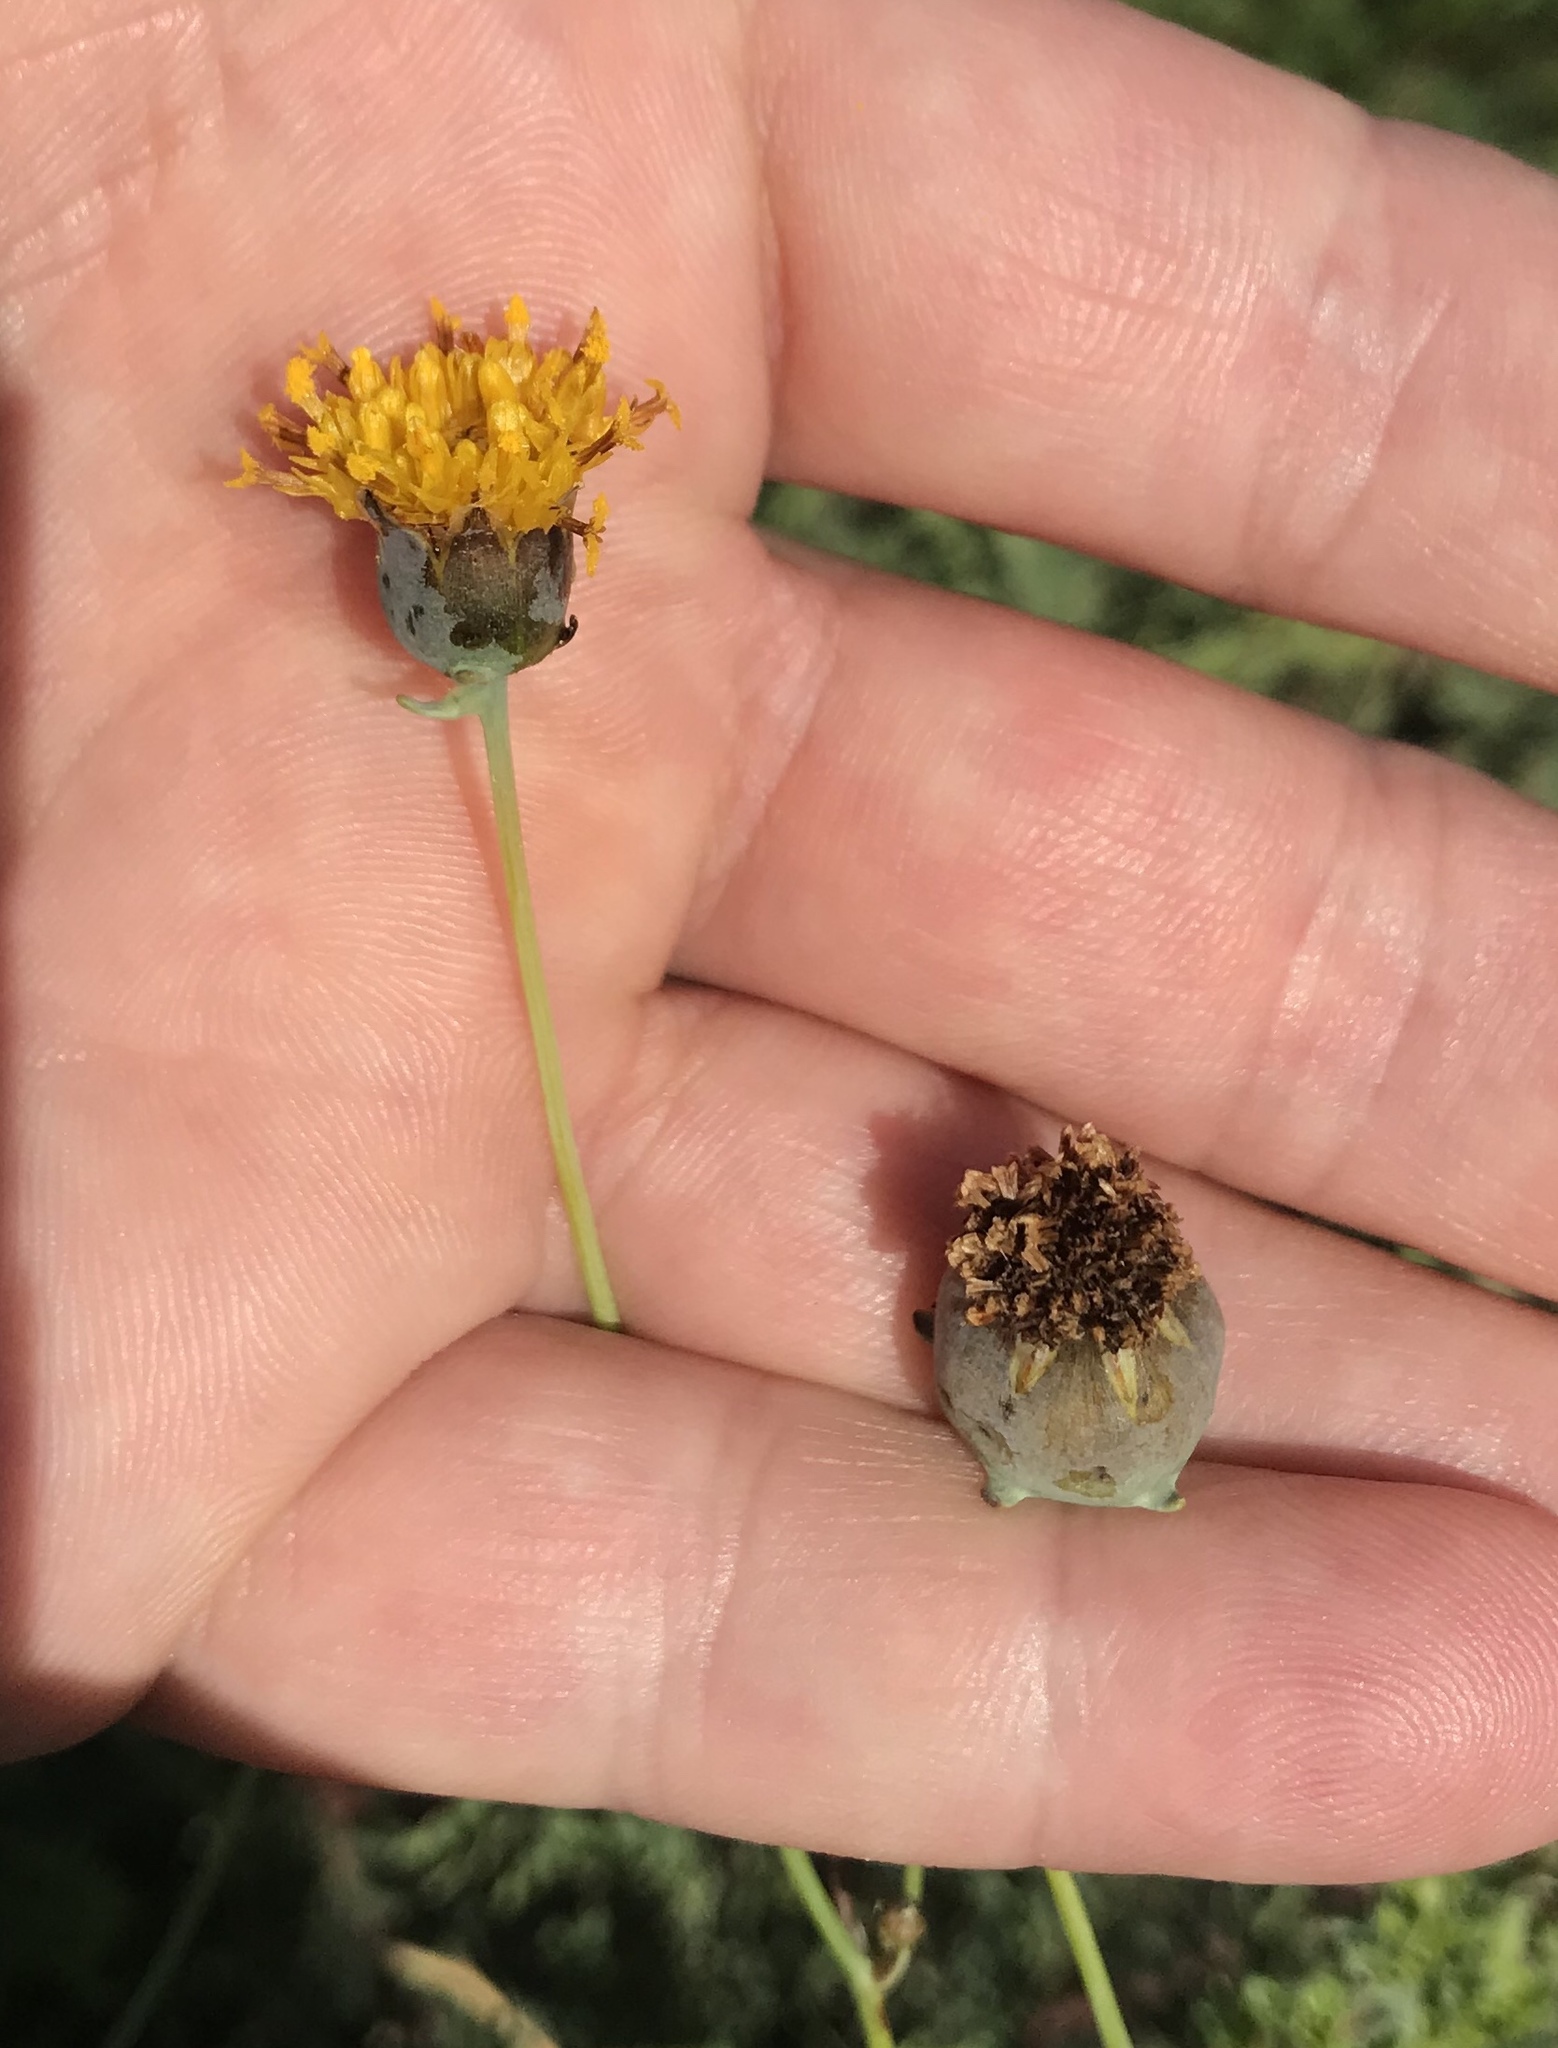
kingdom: Plantae
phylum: Tracheophyta
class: Magnoliopsida
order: Asterales
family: Asteraceae
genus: Thelesperma
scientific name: Thelesperma megapotamicum
